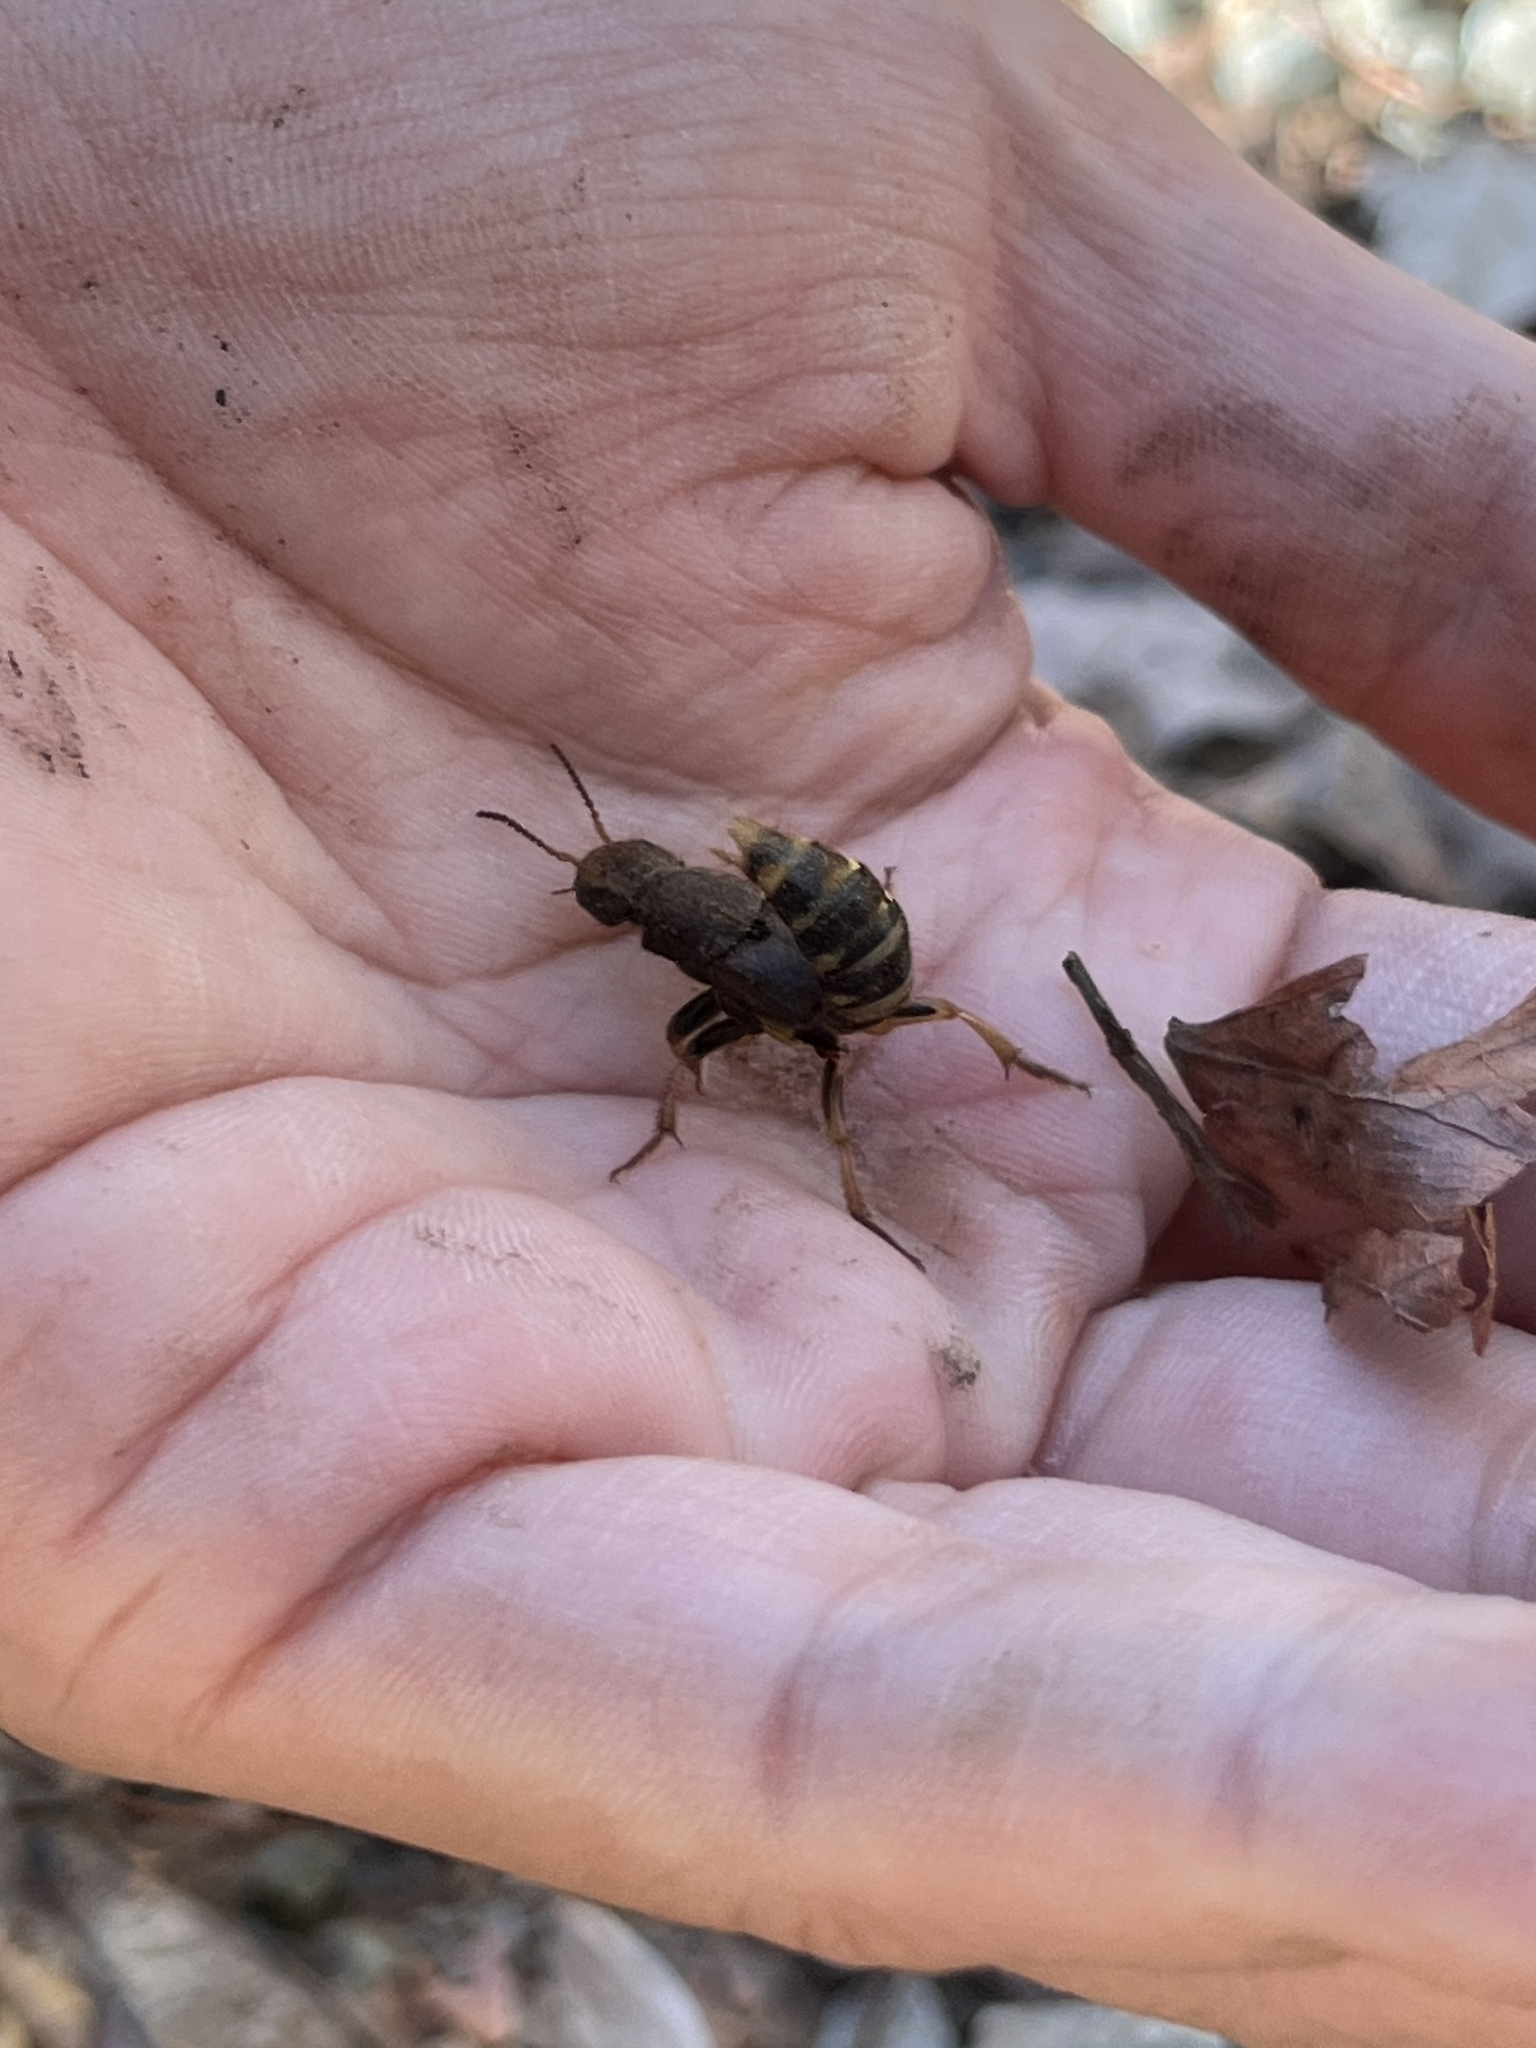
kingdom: Animalia
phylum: Arthropoda
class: Insecta
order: Coleoptera
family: Staphylinidae
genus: Platydracus
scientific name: Platydracus maculosus
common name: Brown rove beetle
